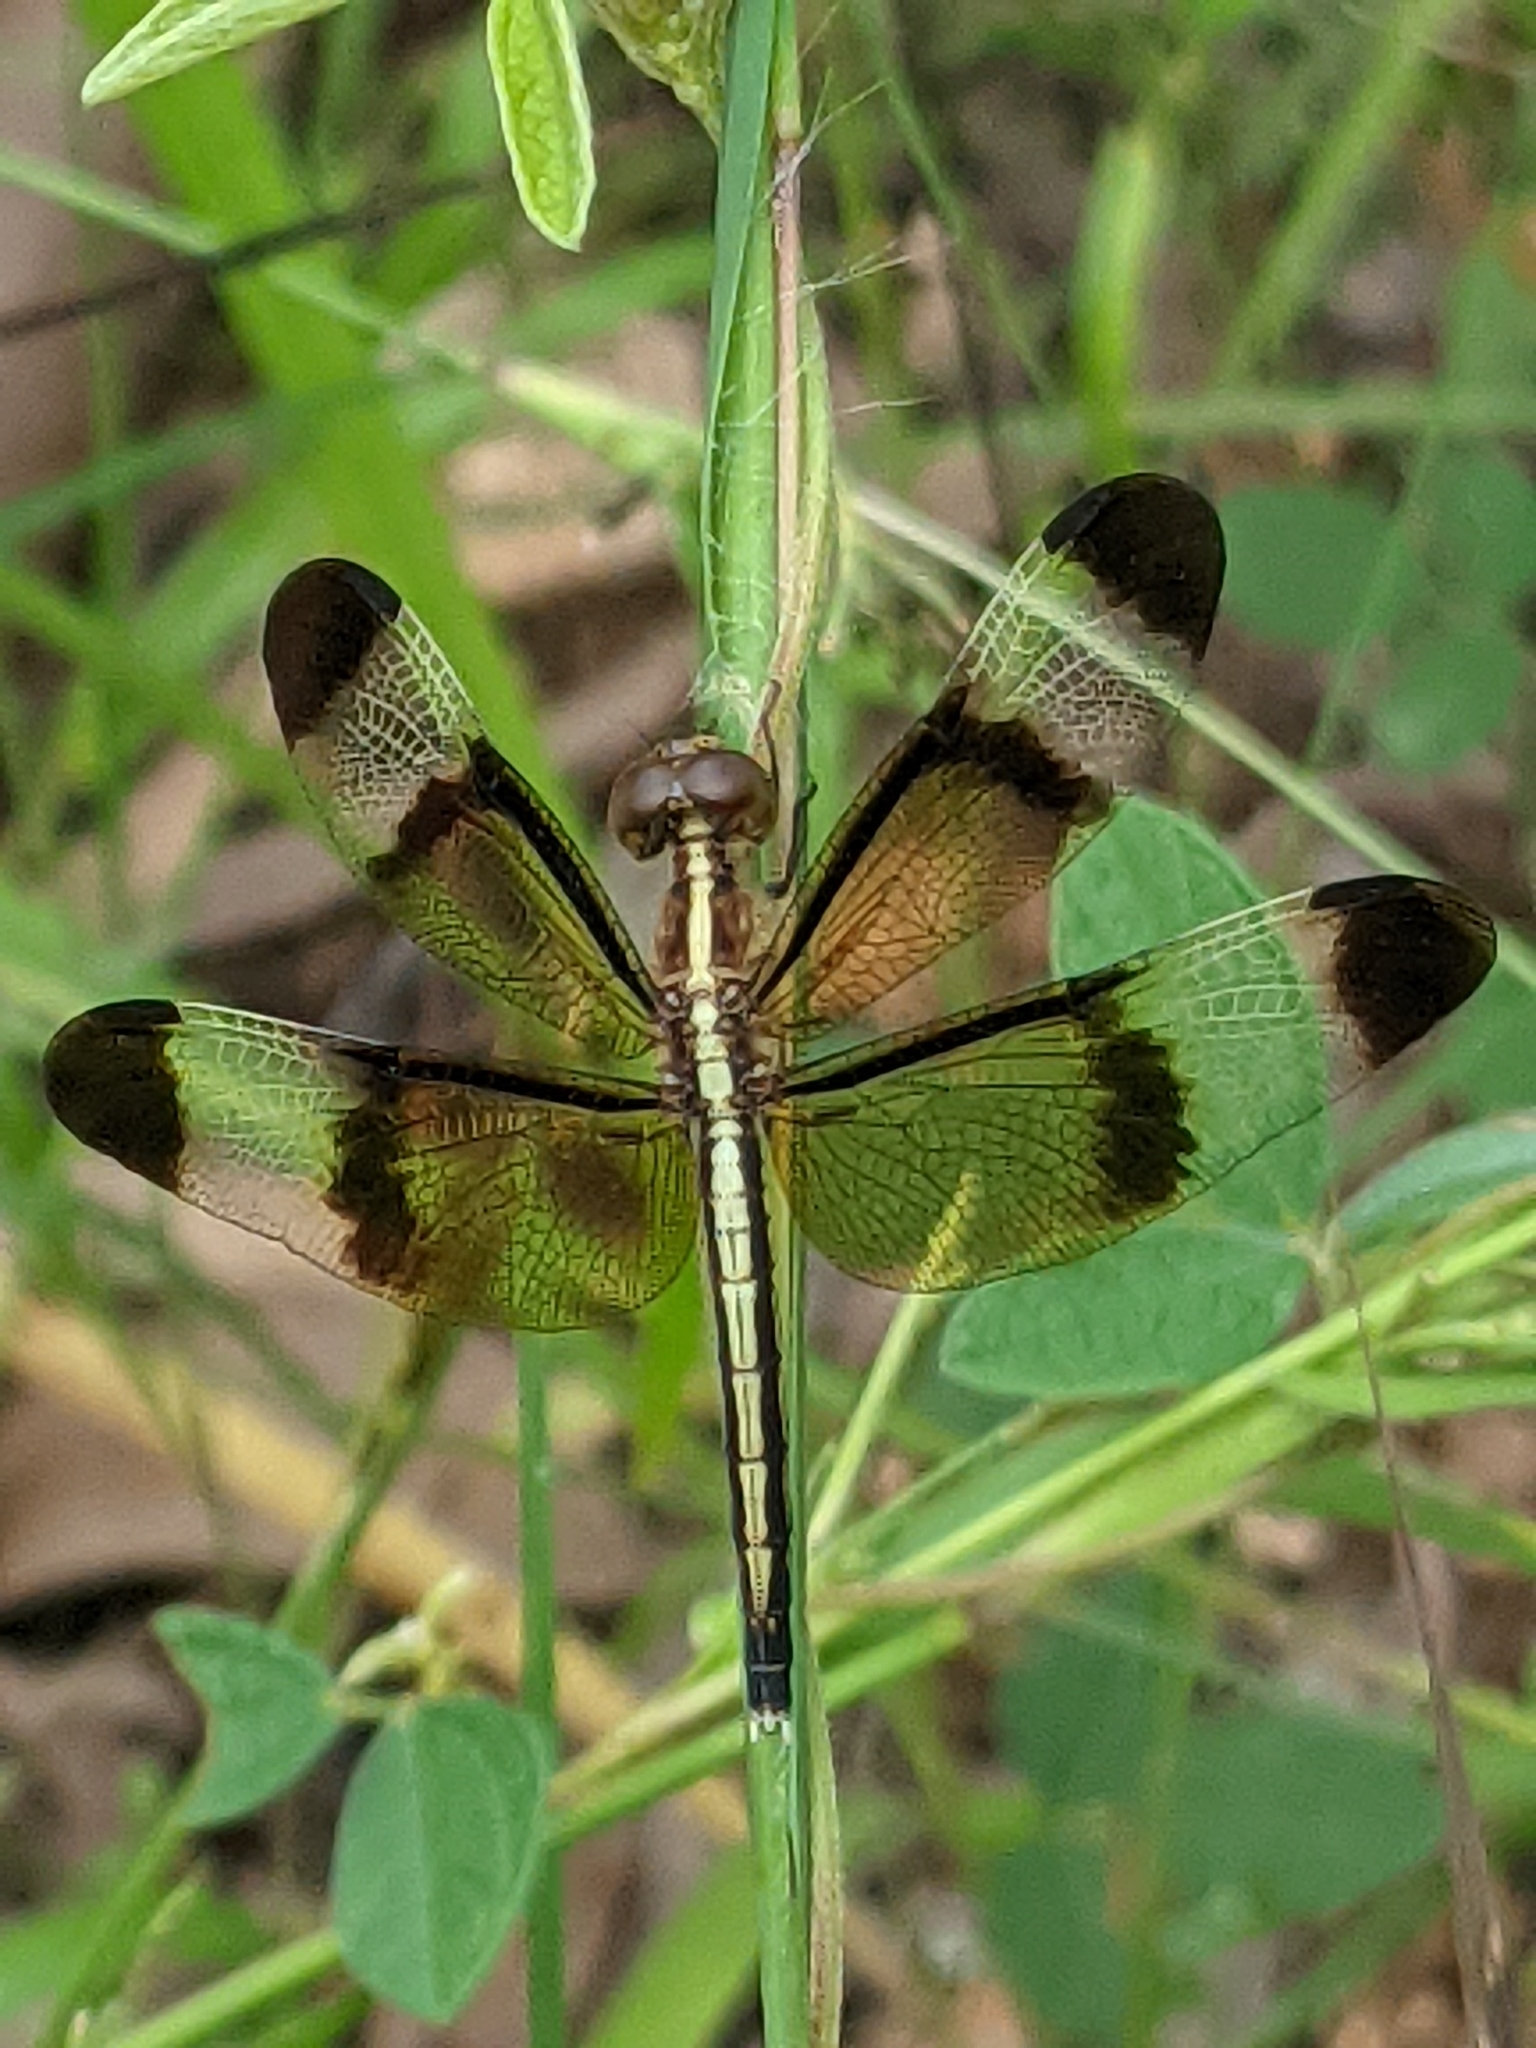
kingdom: Animalia
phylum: Arthropoda
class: Insecta
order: Odonata
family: Libellulidae
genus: Neurothemis
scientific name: Neurothemis tullia
